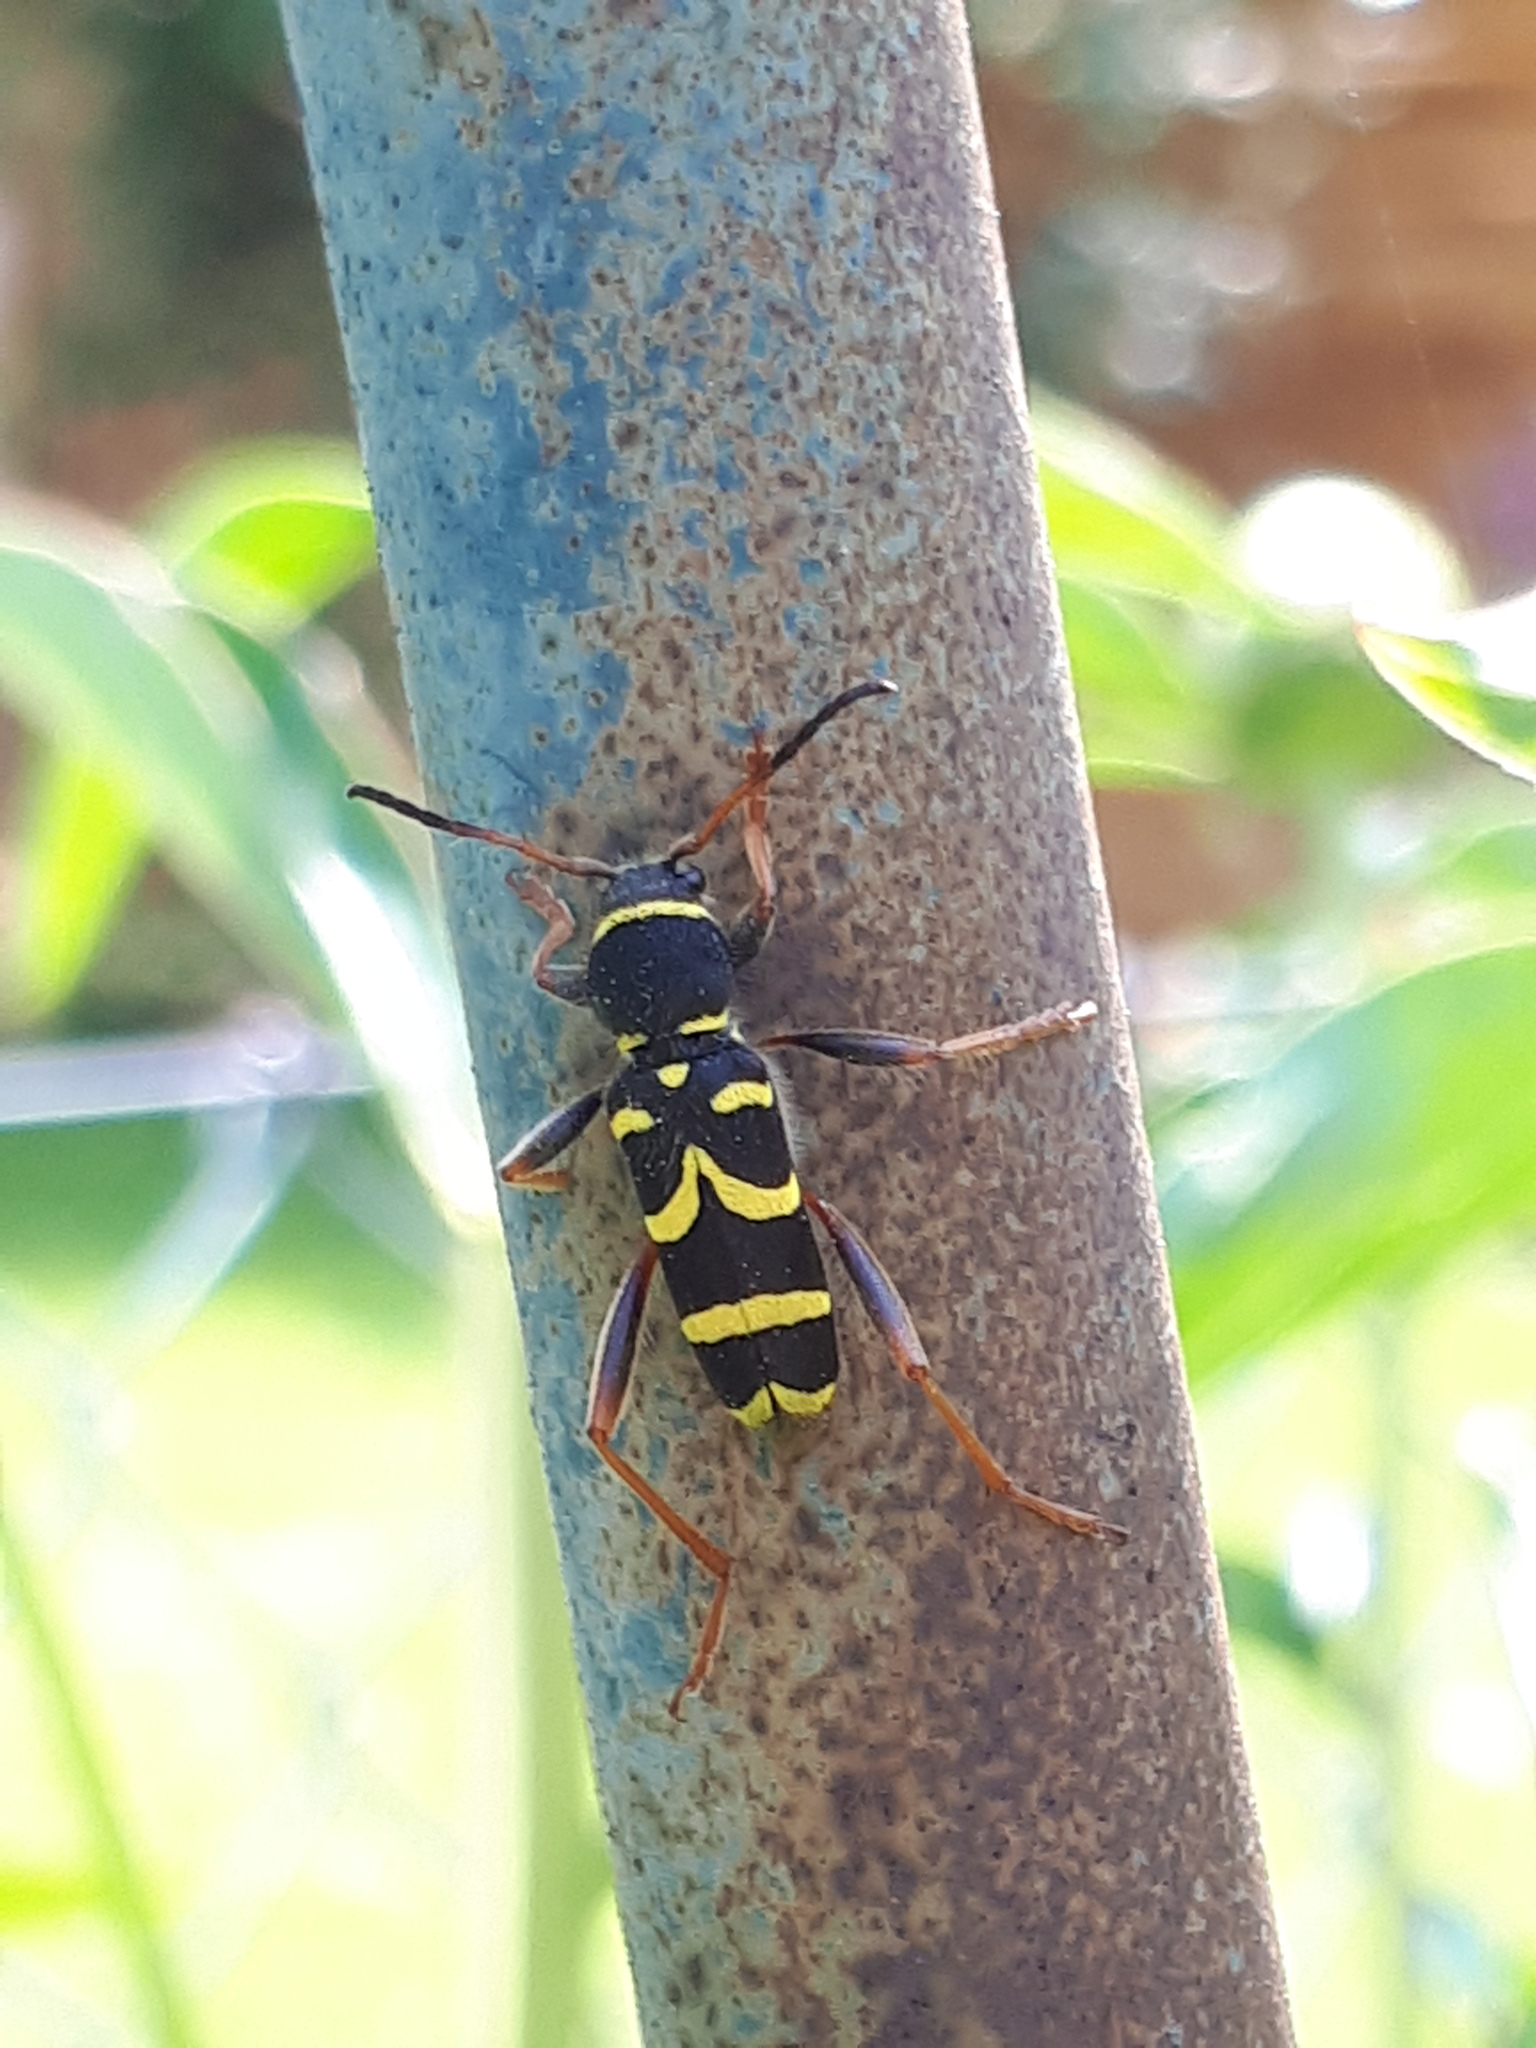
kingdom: Animalia
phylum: Arthropoda
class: Insecta
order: Coleoptera
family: Cerambycidae
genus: Clytus
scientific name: Clytus arietis
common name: Wasp beetle
